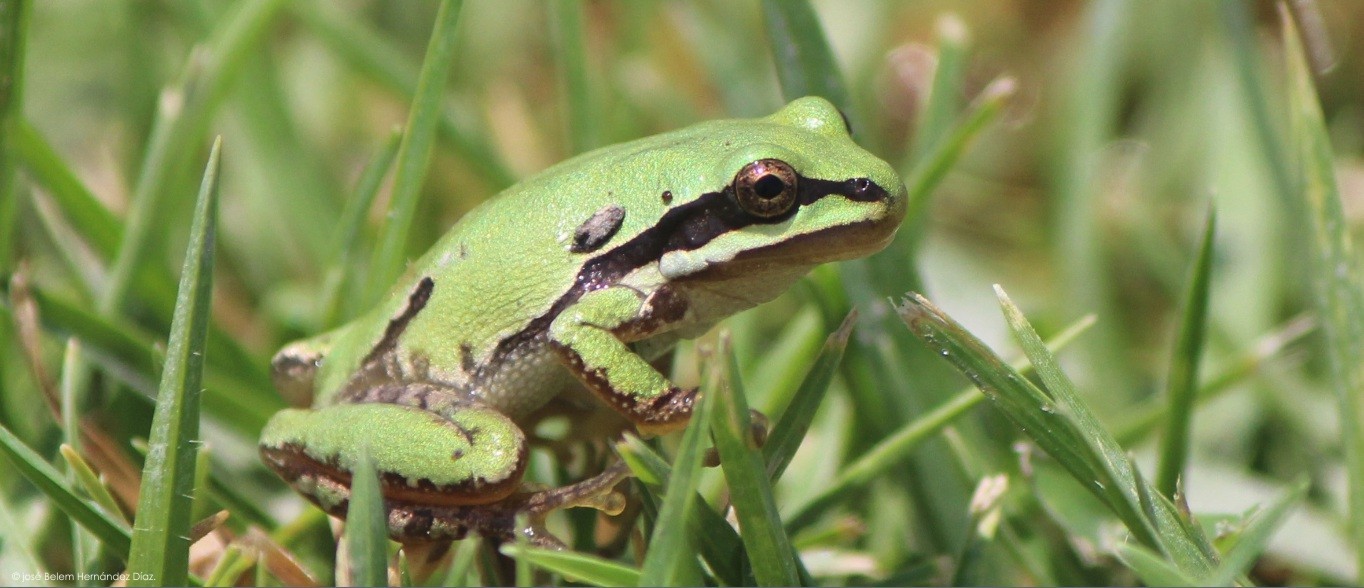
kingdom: Animalia
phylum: Chordata
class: Amphibia
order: Anura
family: Hylidae
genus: Dryophytes
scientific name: Dryophytes eximius
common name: Mountain treefrog
